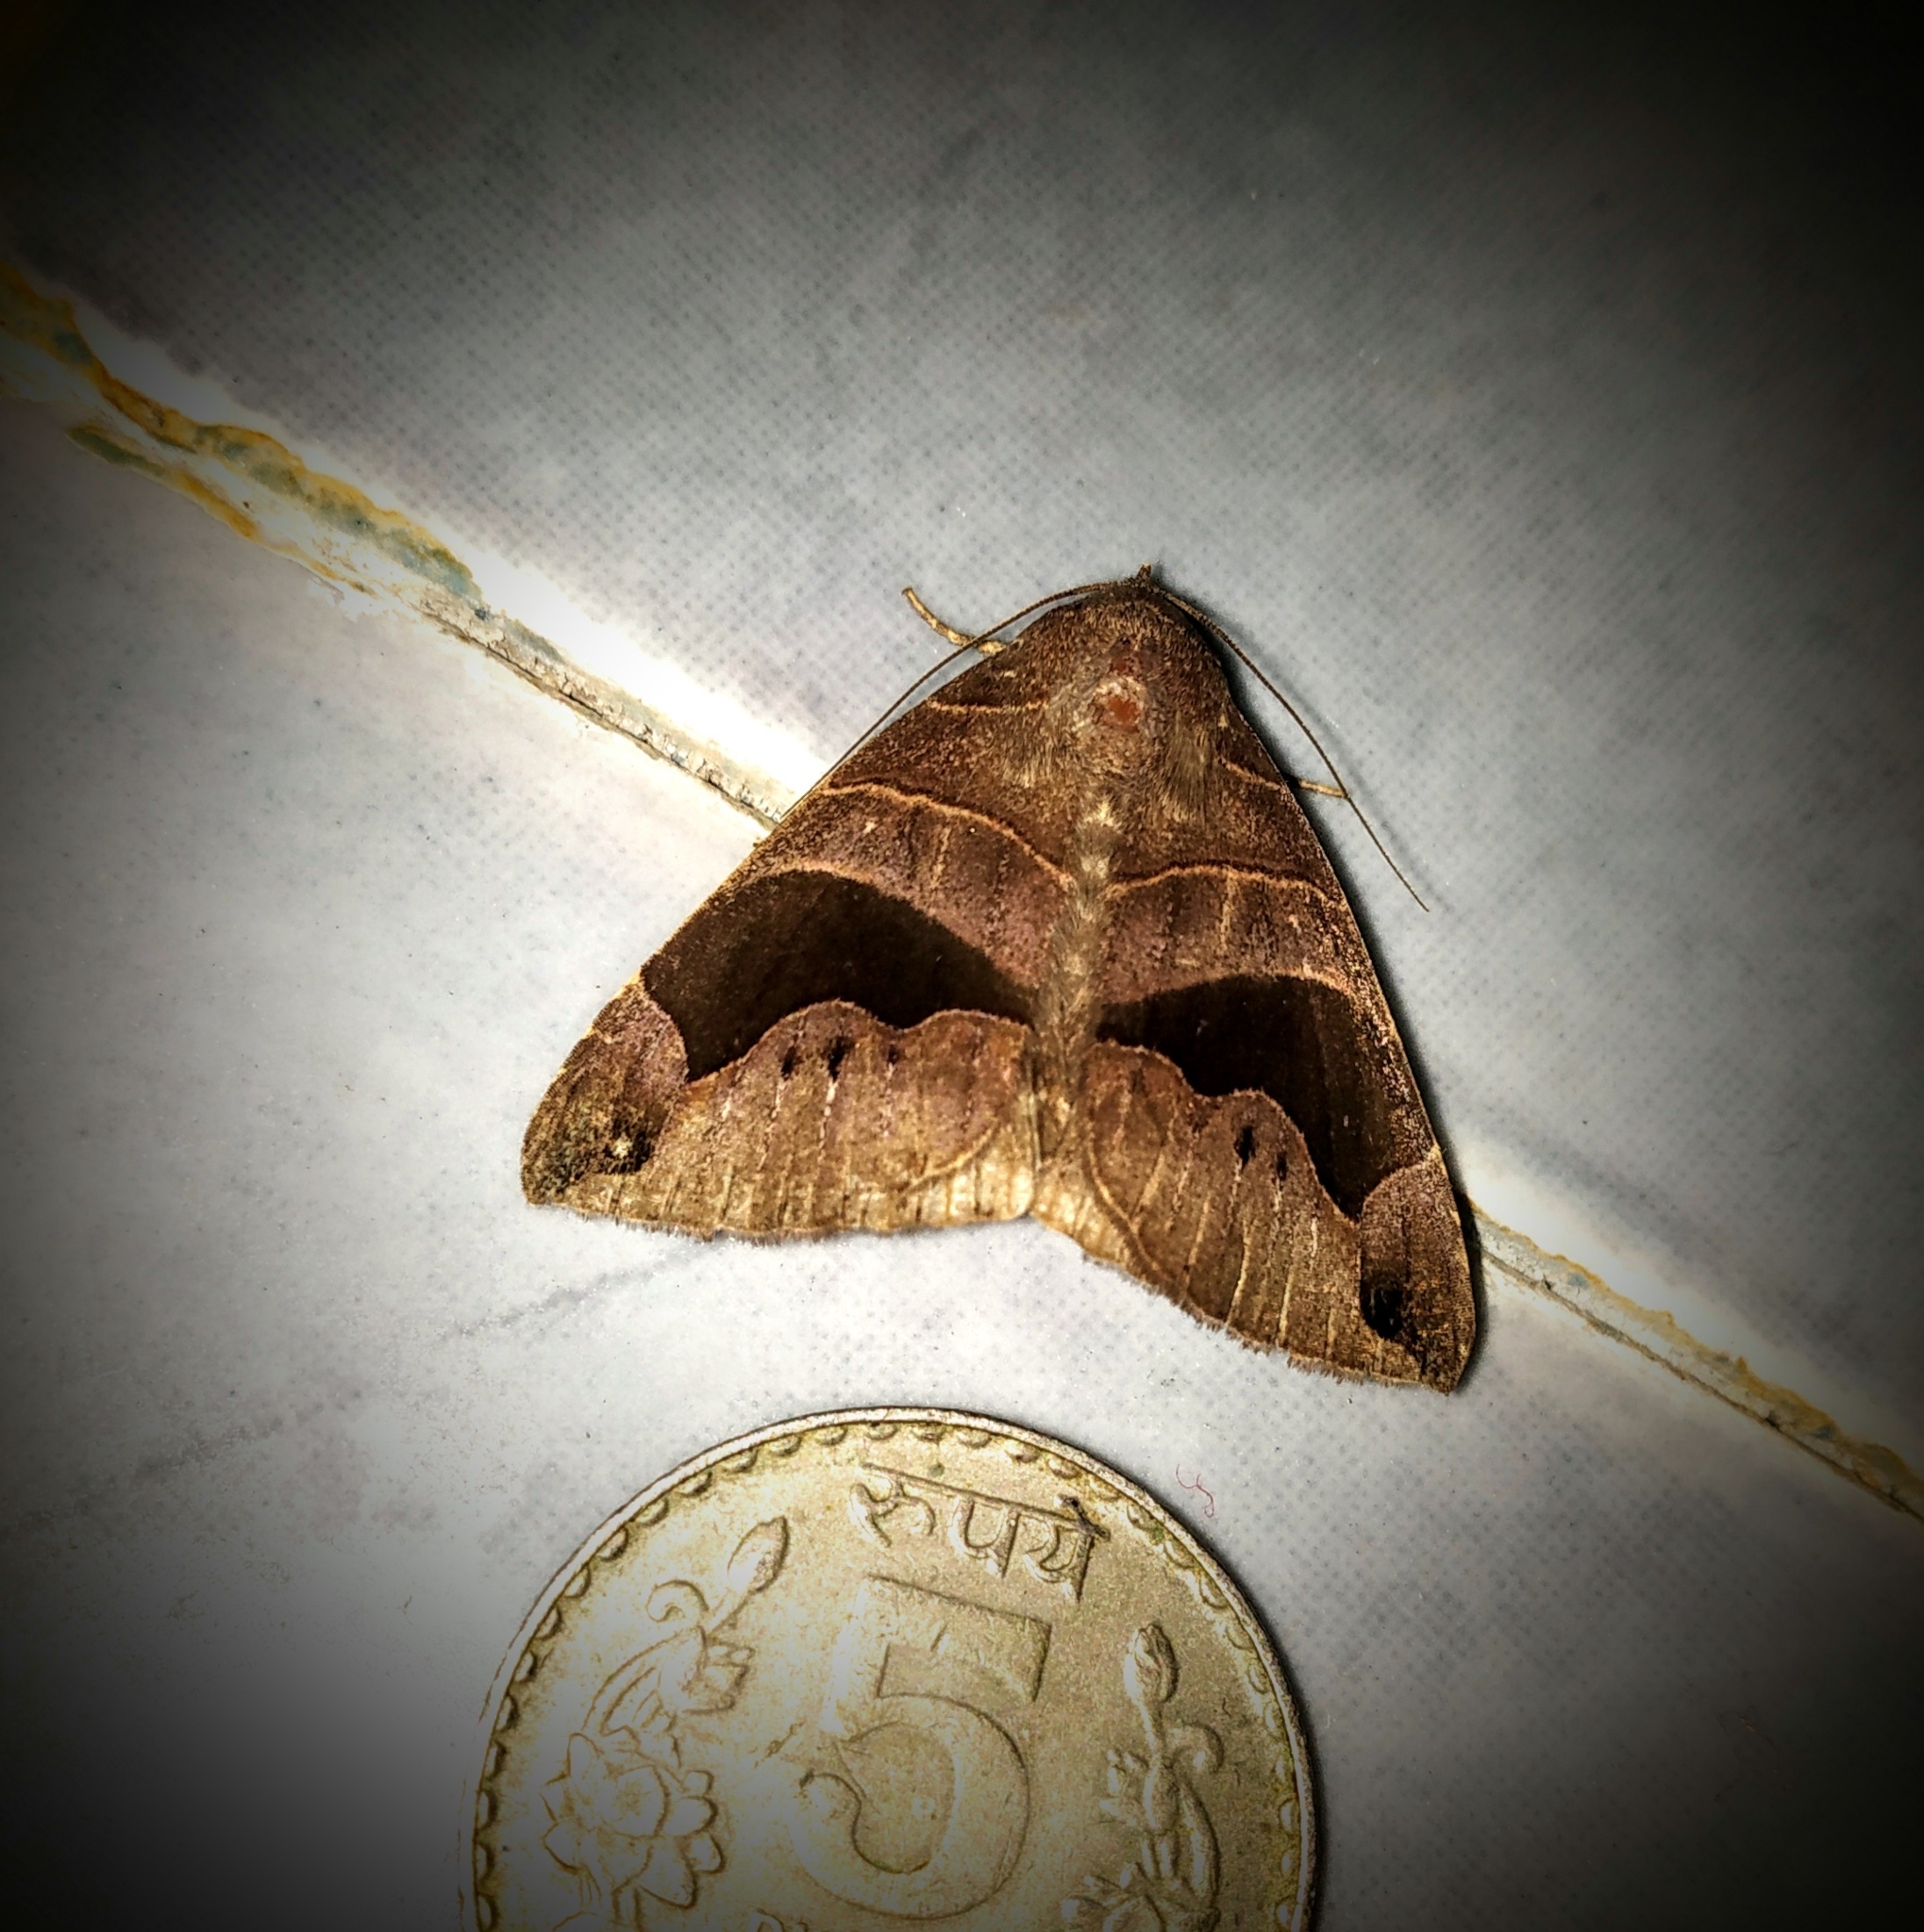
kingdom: Animalia
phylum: Arthropoda
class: Insecta
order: Lepidoptera
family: Erebidae
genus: Bastilla
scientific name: Bastilla joviana
